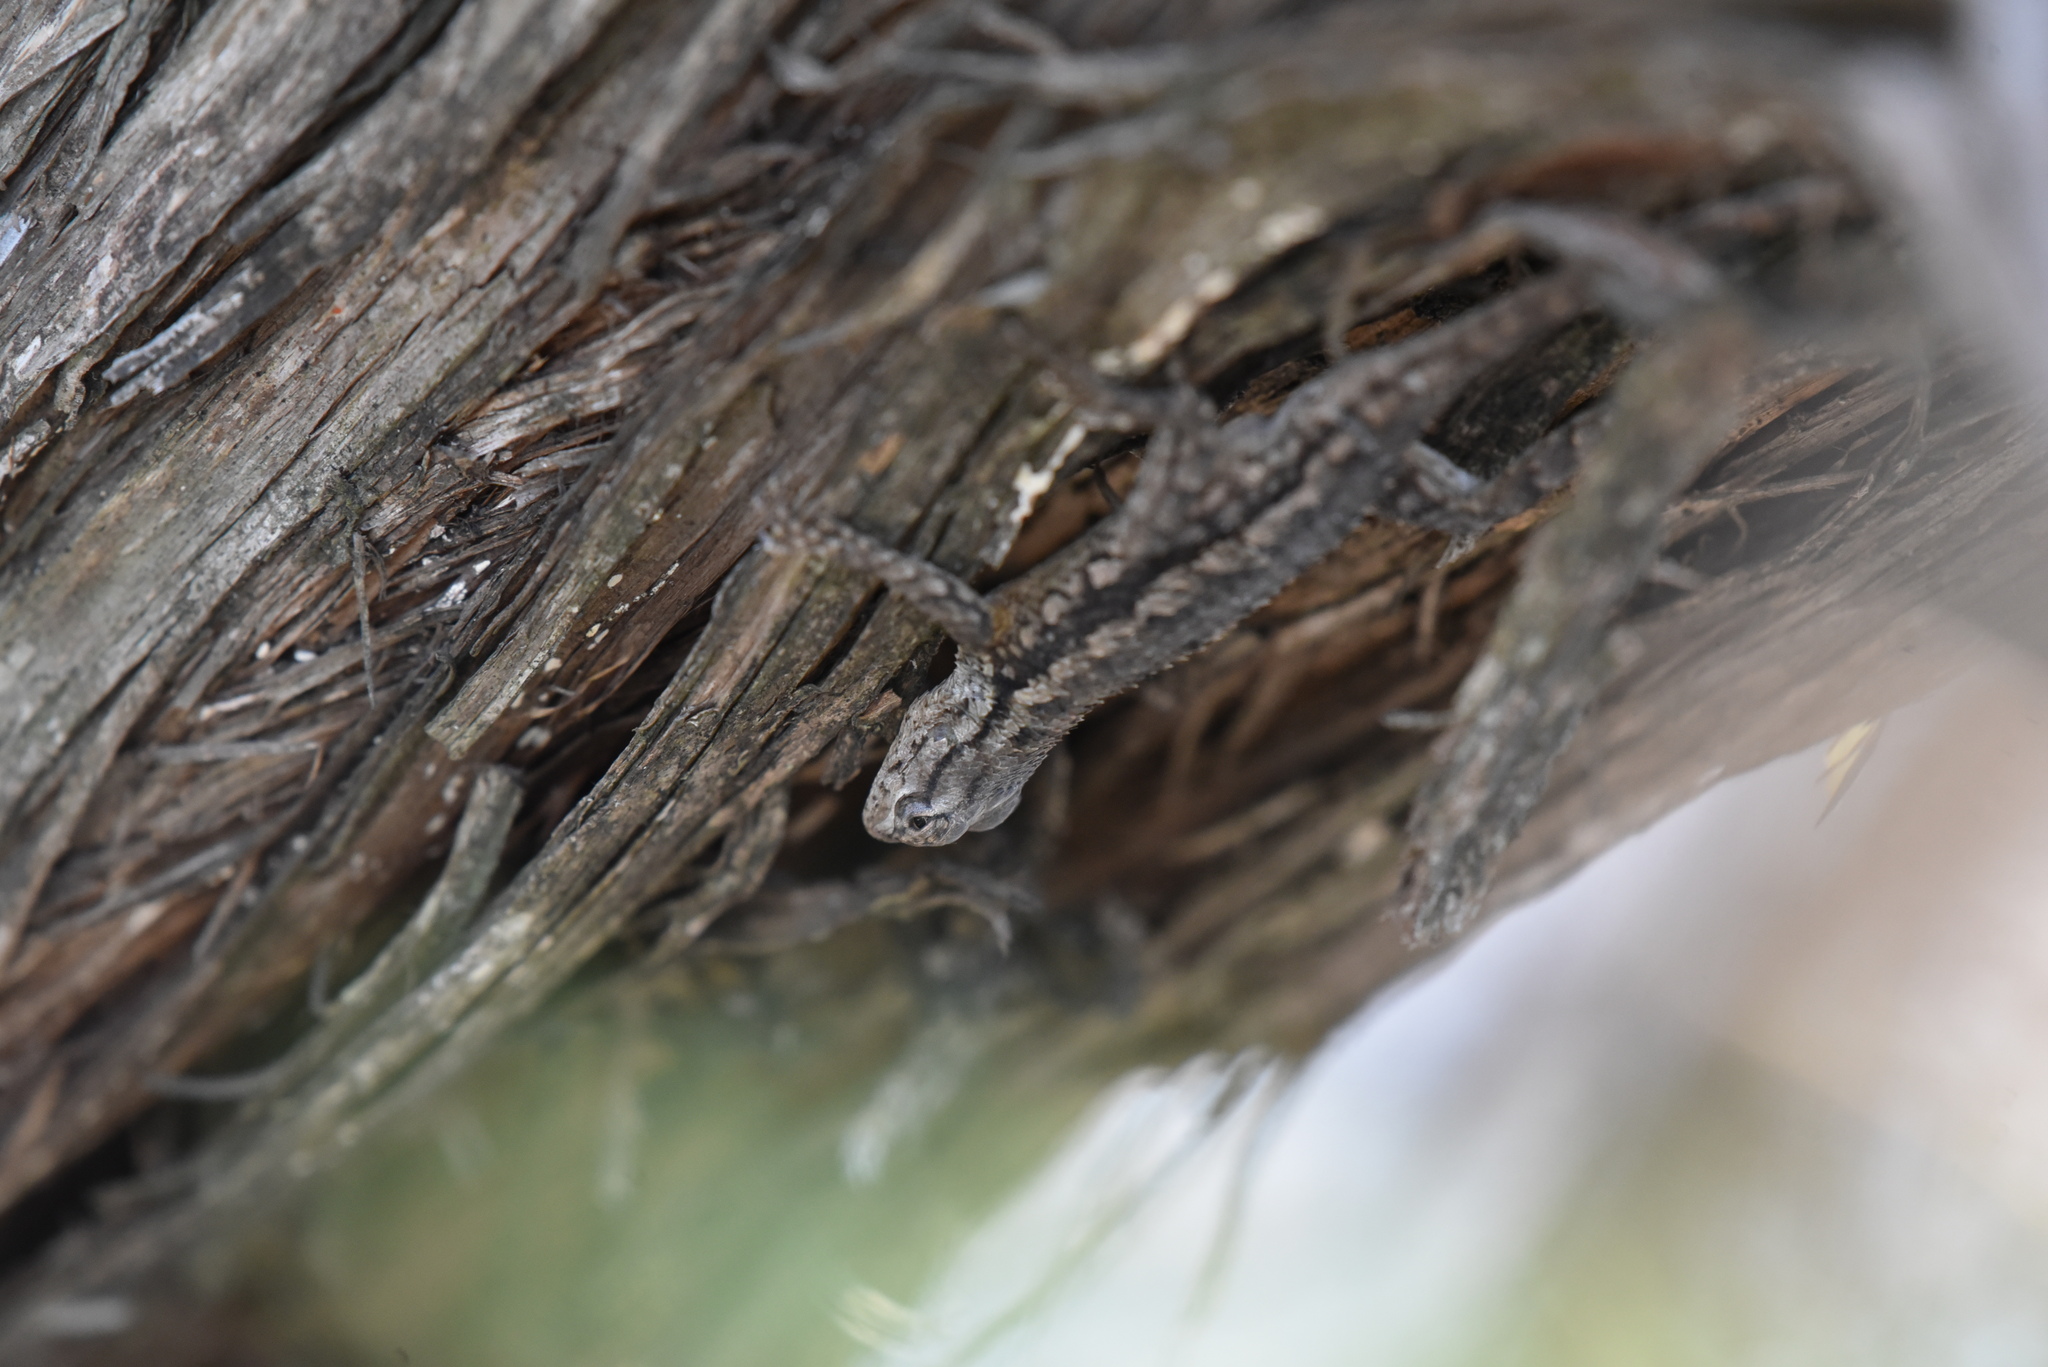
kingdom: Animalia
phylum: Chordata
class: Squamata
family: Phrynosomatidae
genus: Sceloporus
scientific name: Sceloporus olivaceus
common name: Texas spiny lizard
